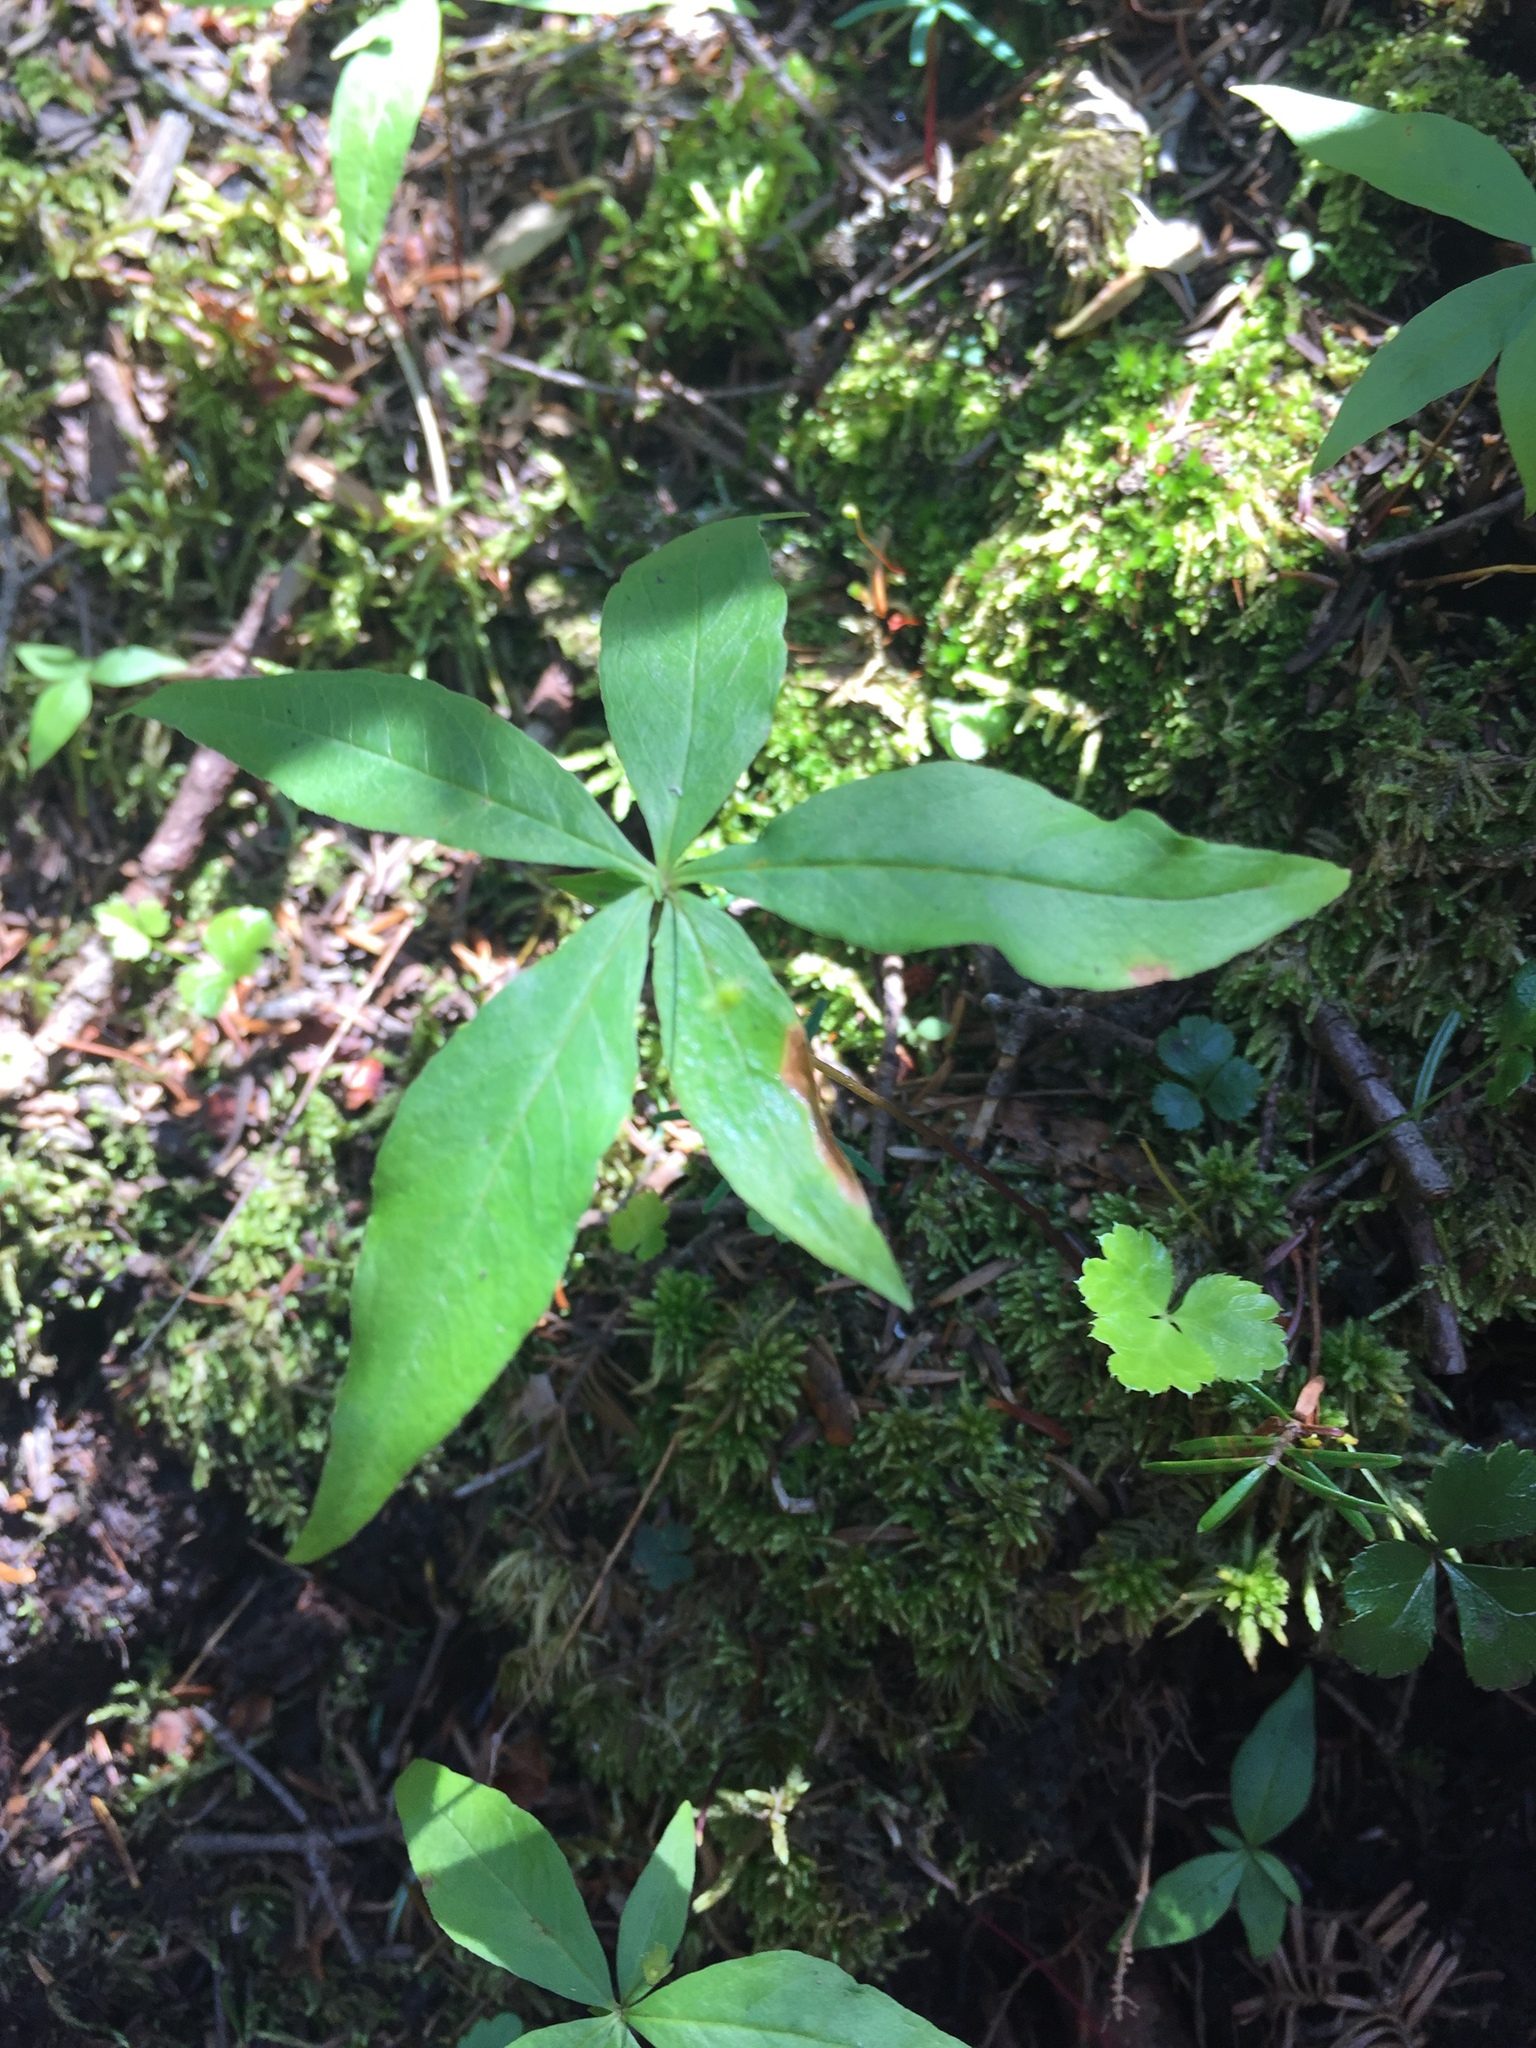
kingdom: Plantae
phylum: Tracheophyta
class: Magnoliopsida
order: Ericales
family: Primulaceae
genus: Lysimachia
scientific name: Lysimachia borealis
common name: American starflower
